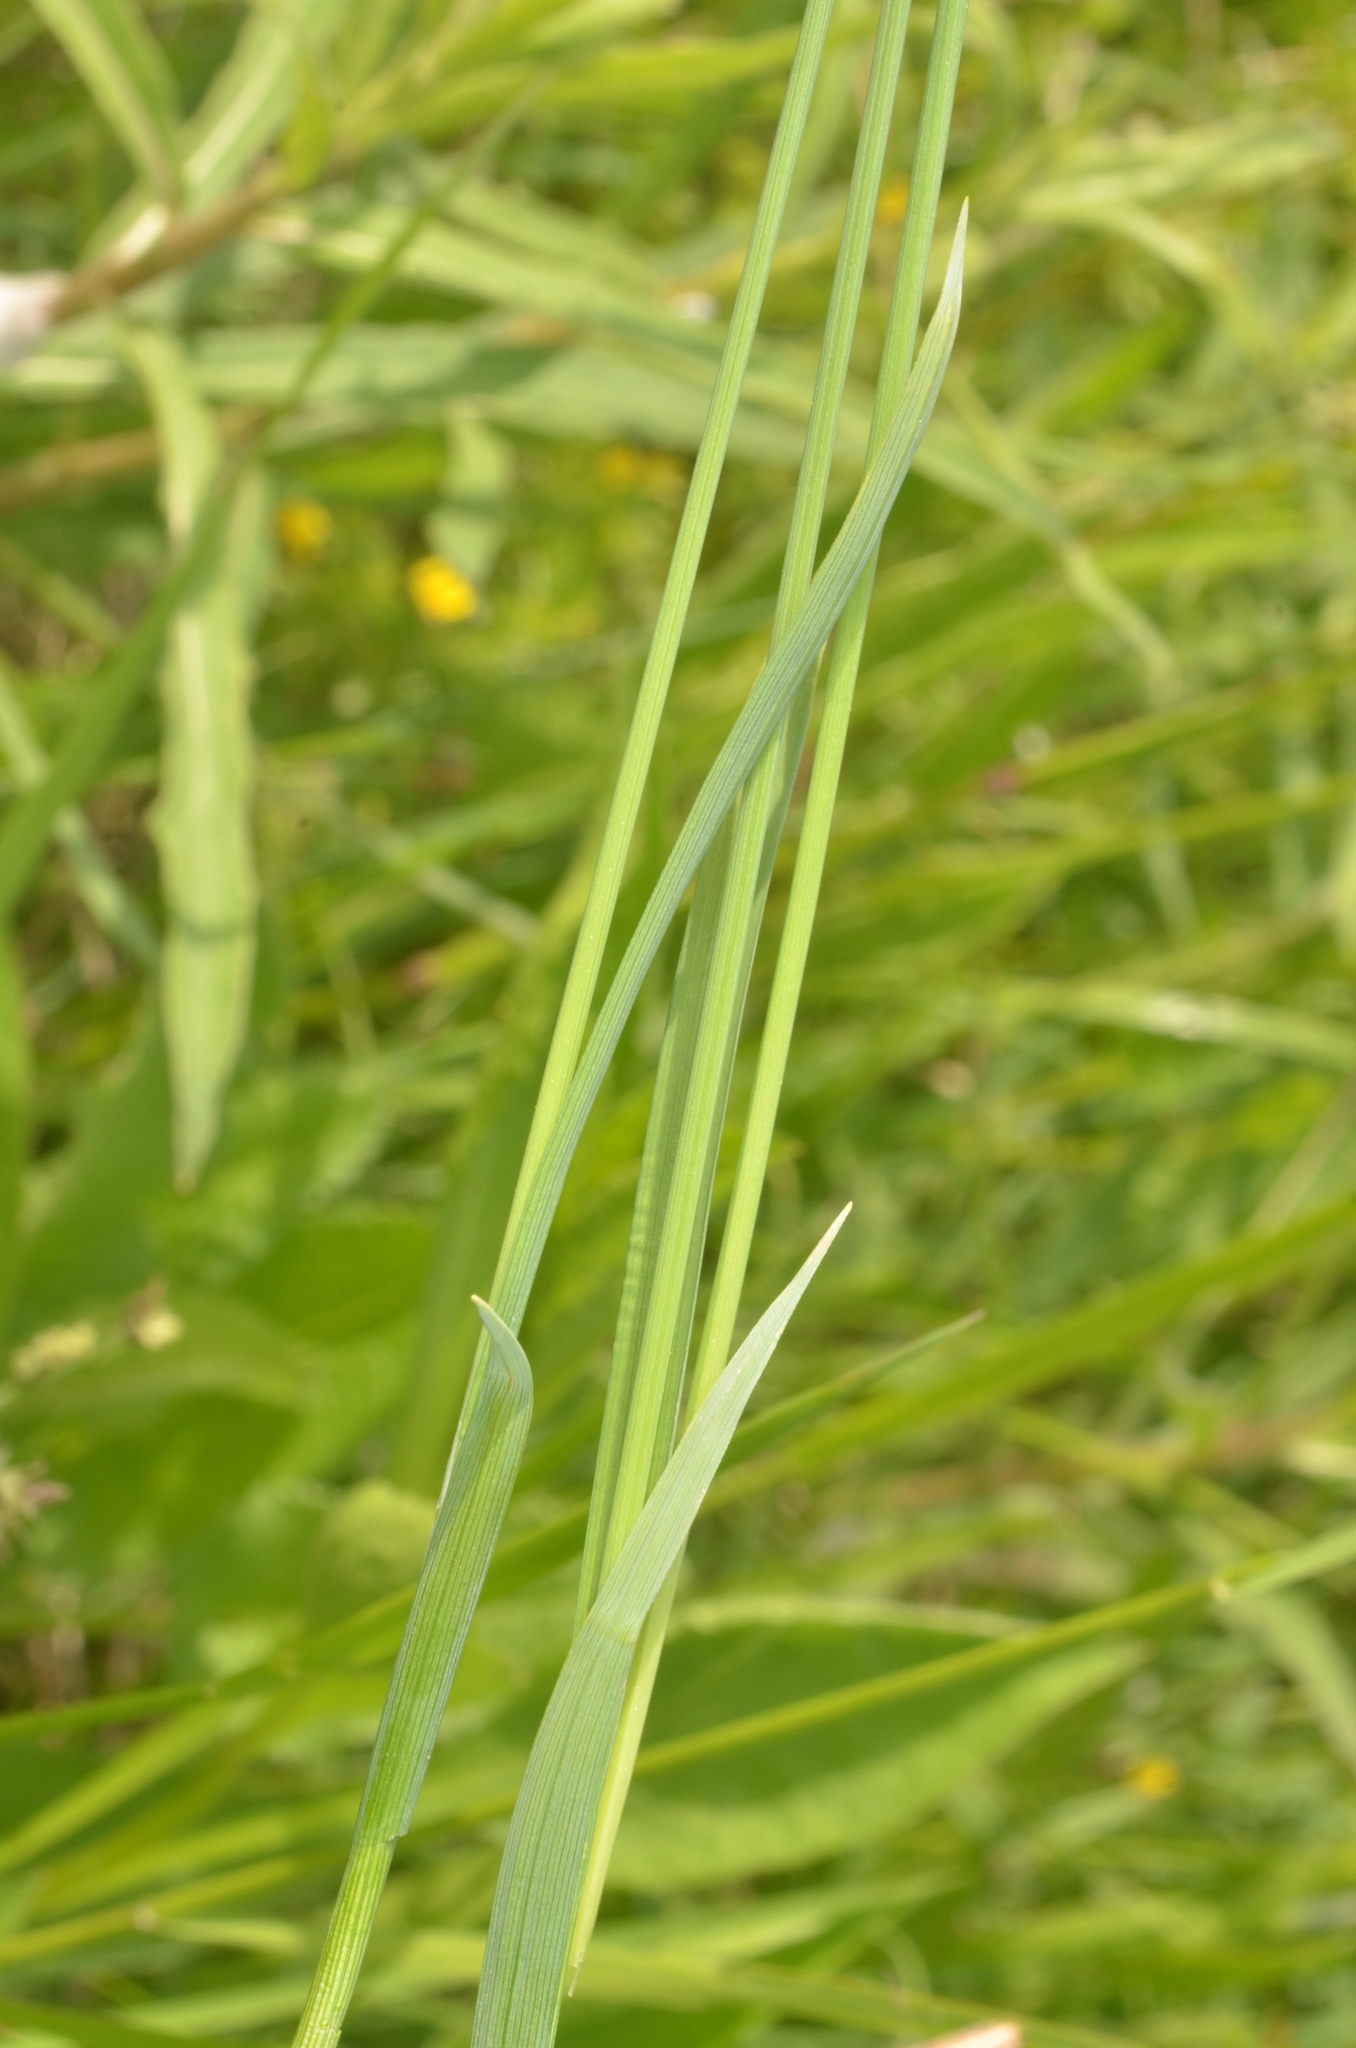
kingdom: Plantae
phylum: Tracheophyta
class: Liliopsida
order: Poales
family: Cyperaceae
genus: Carex
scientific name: Carex panicea
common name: Carnation sedge
